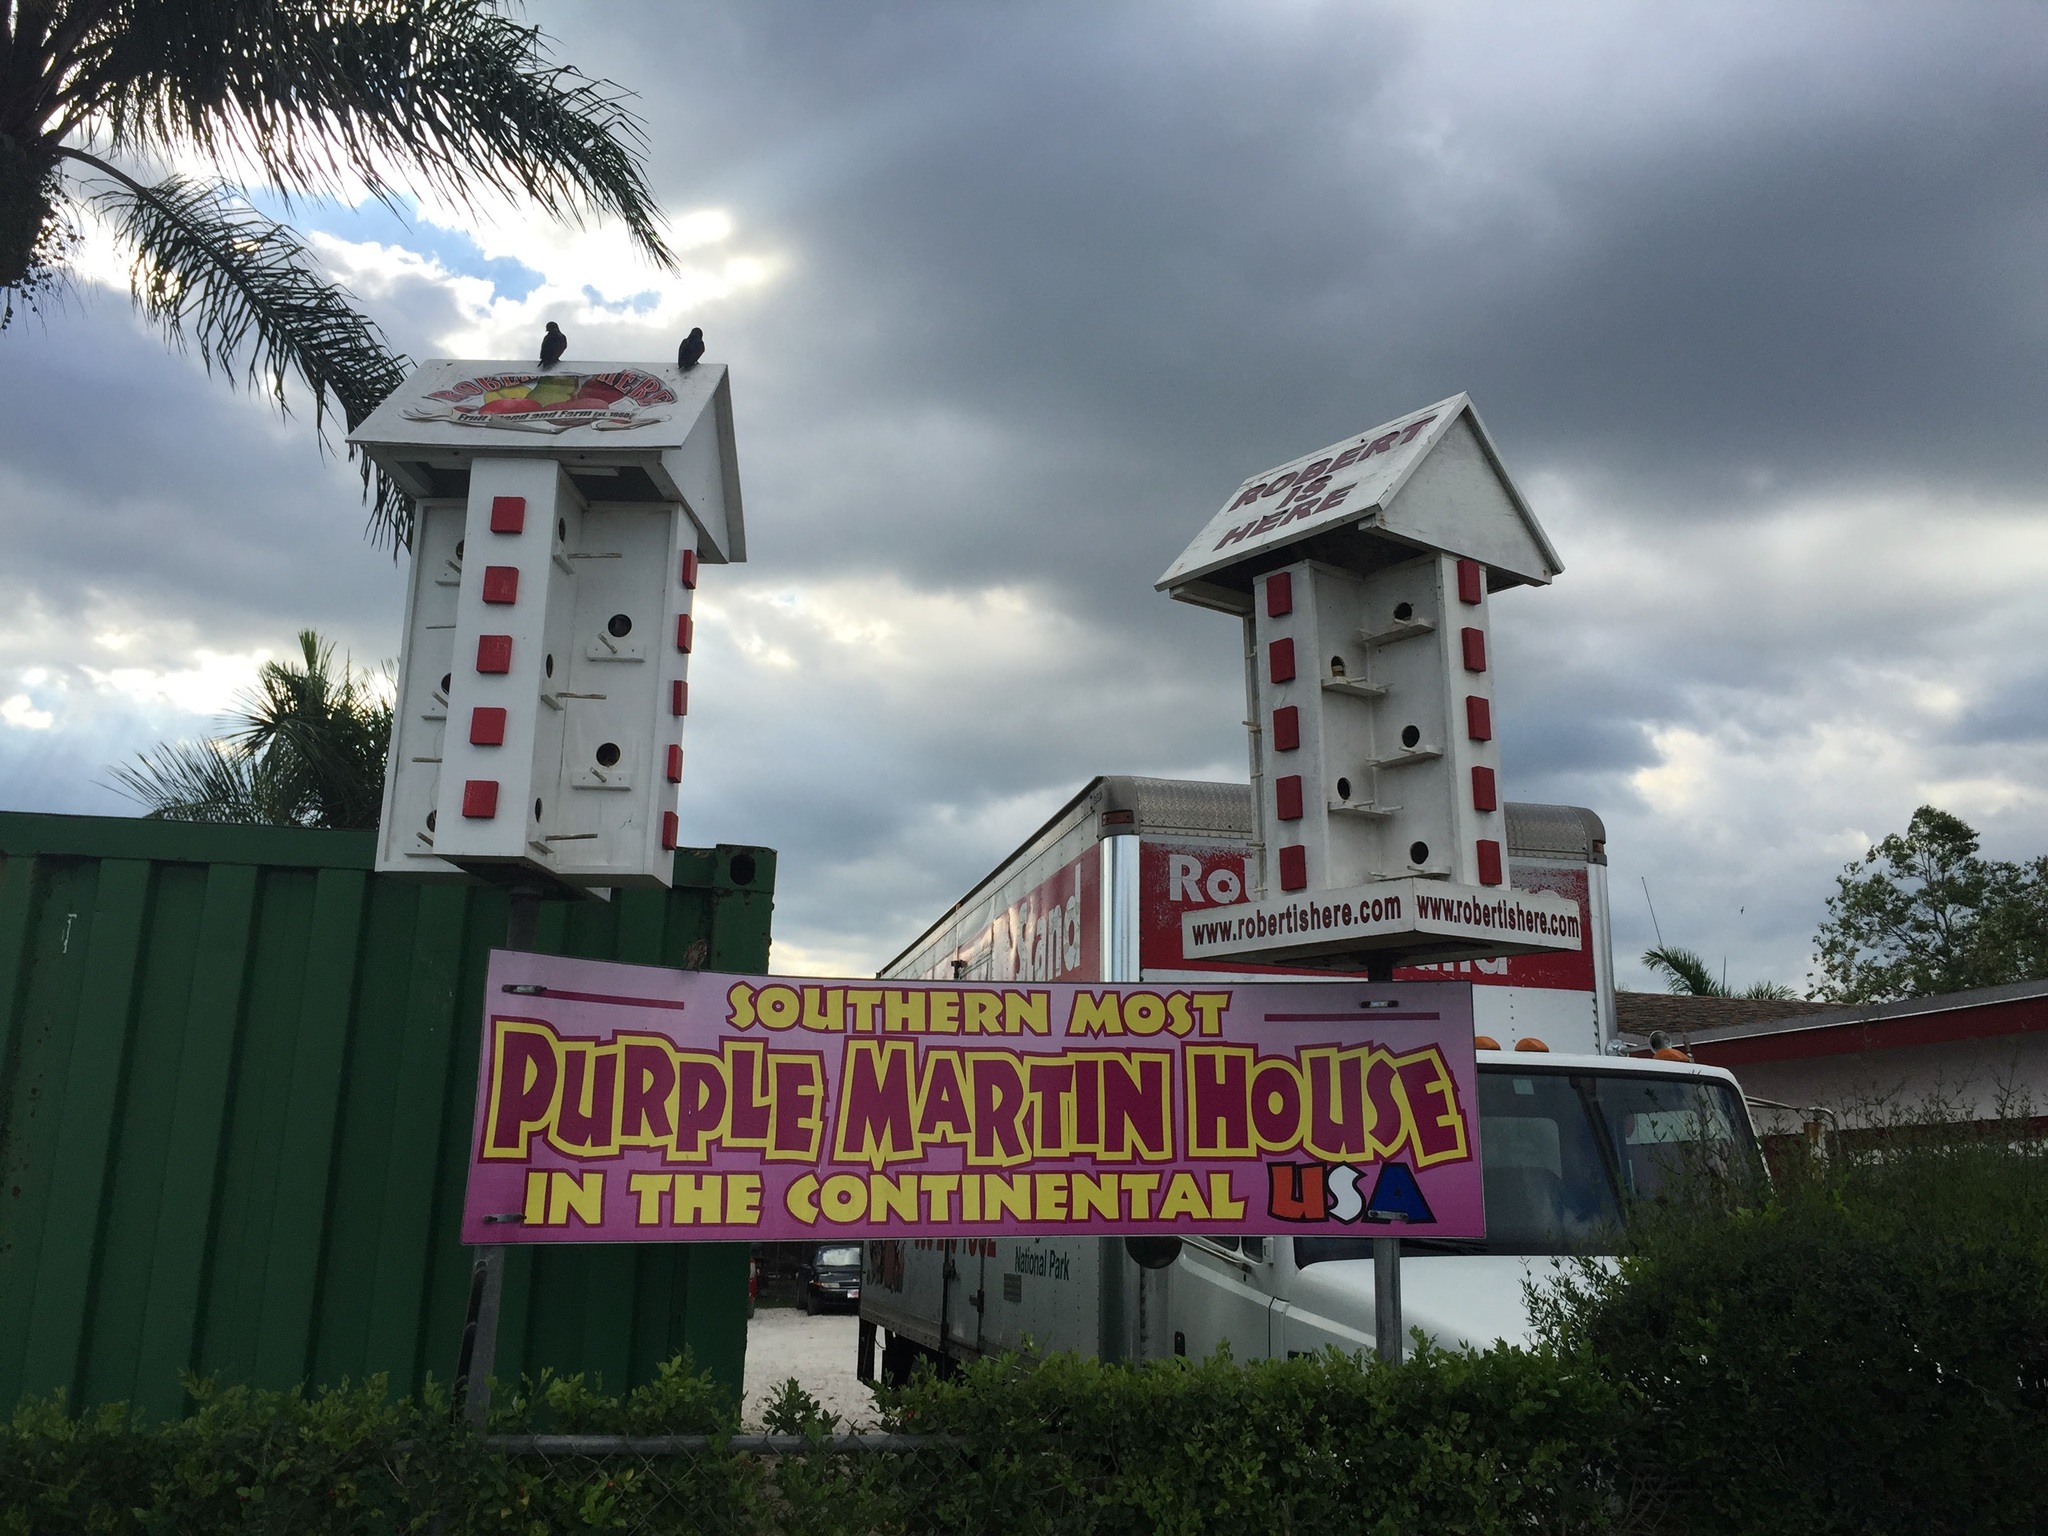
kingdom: Animalia
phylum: Chordata
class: Aves
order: Passeriformes
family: Hirundinidae
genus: Progne
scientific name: Progne subis
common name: Purple martin
